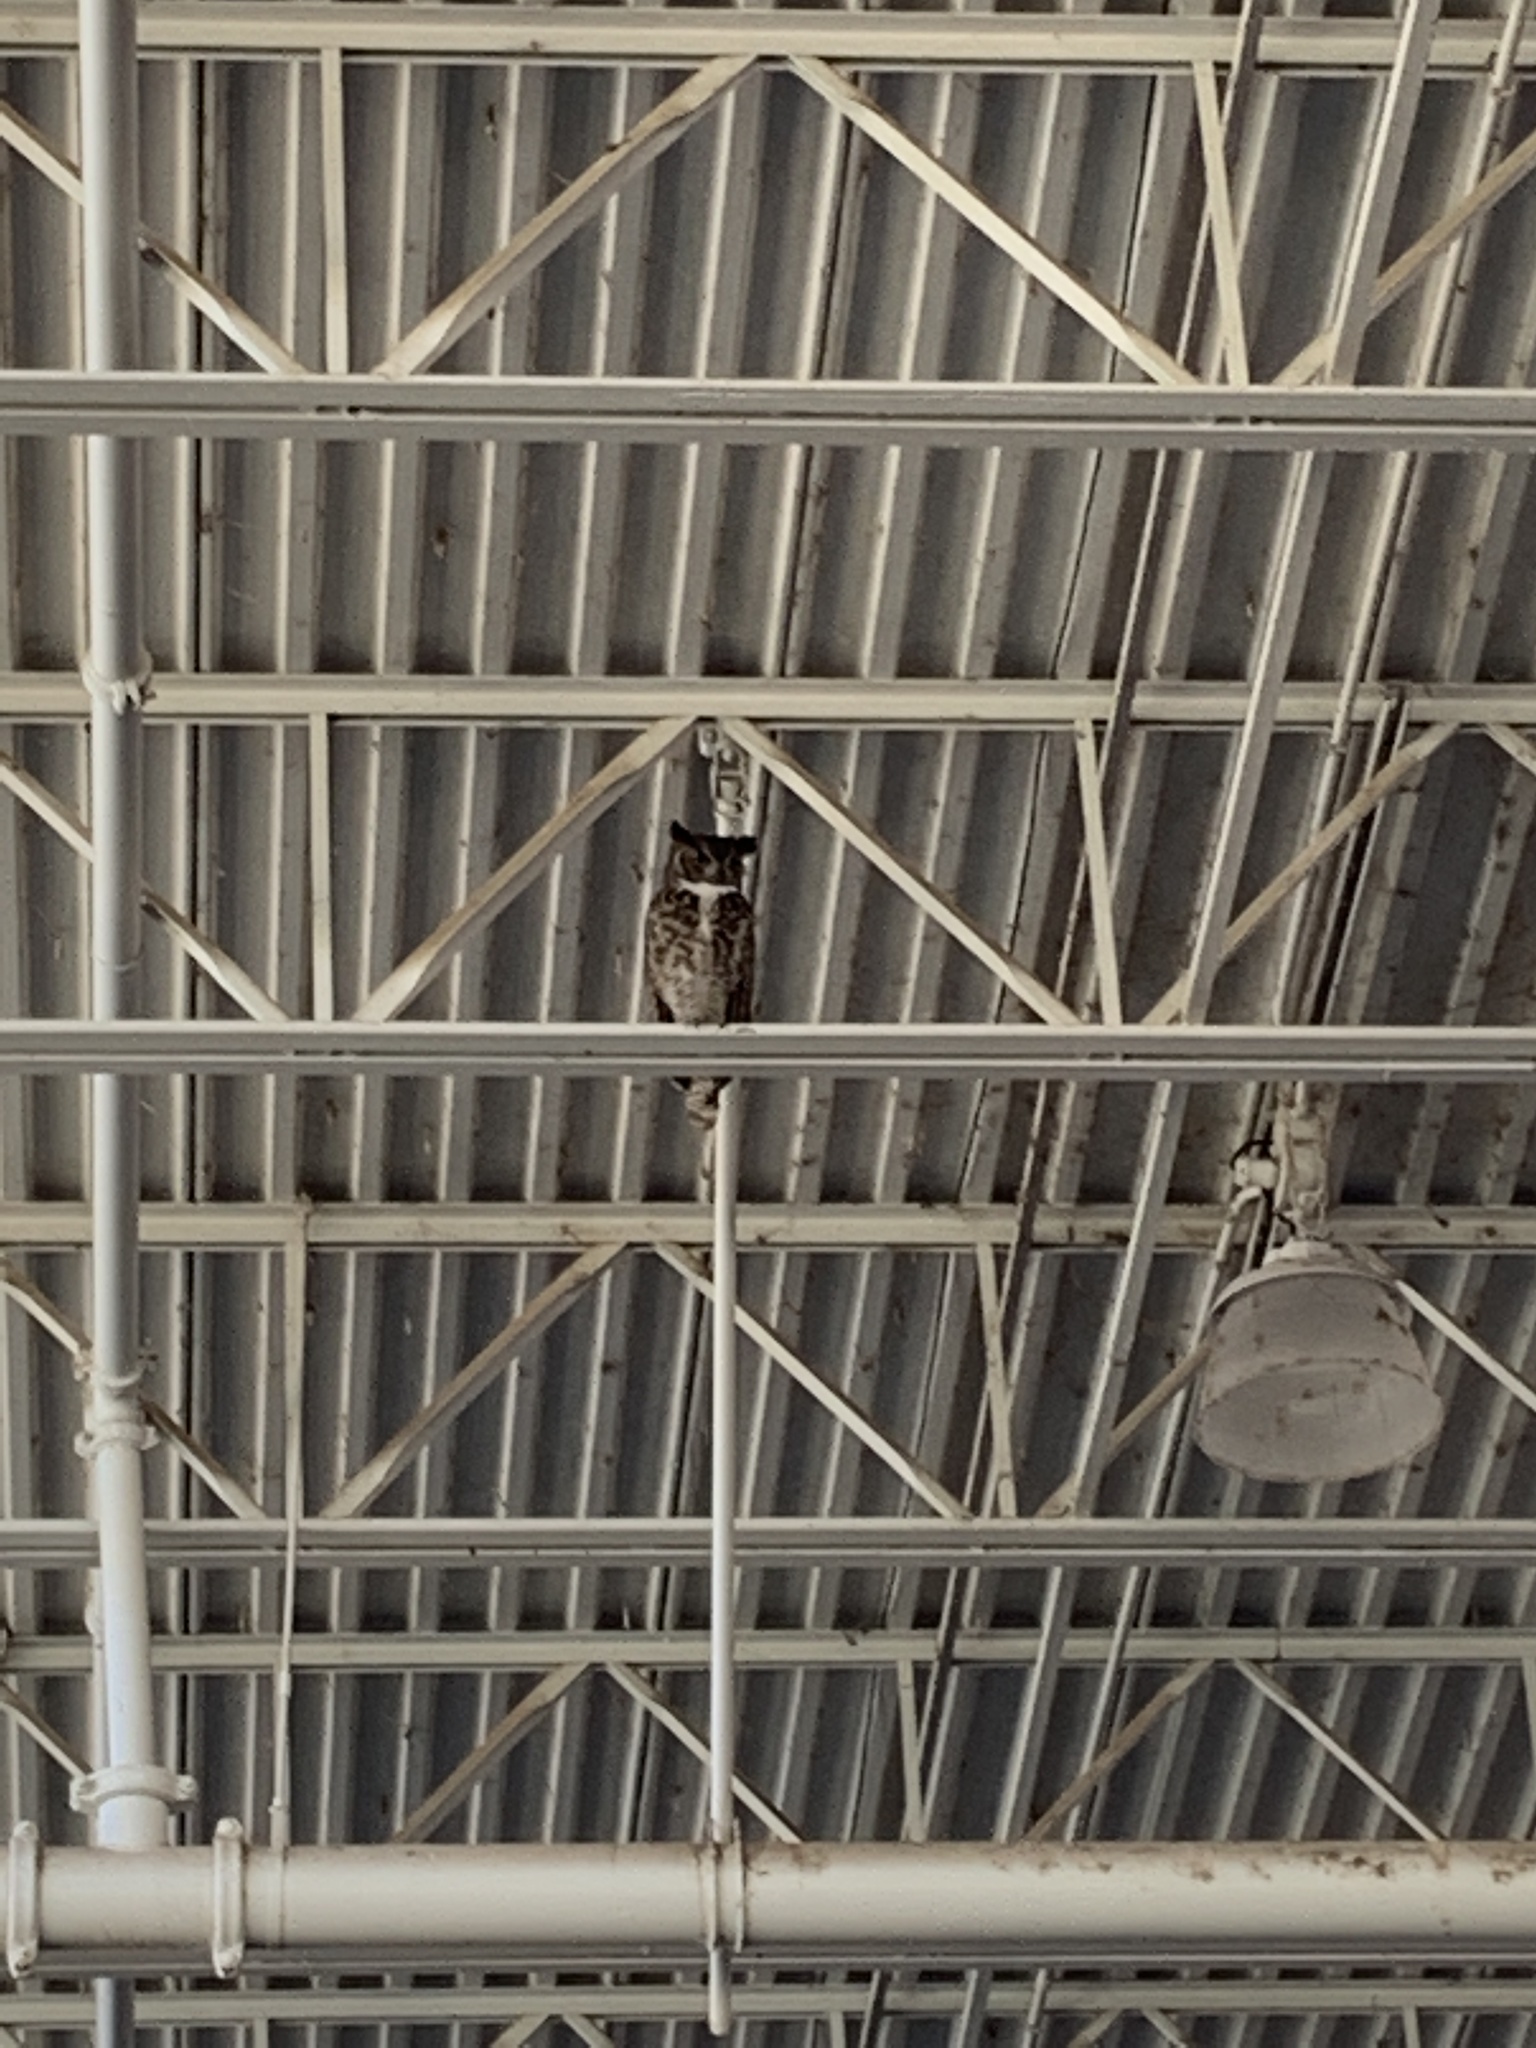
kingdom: Animalia
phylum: Chordata
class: Aves
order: Strigiformes
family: Strigidae
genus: Bubo
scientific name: Bubo virginianus
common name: Great horned owl
